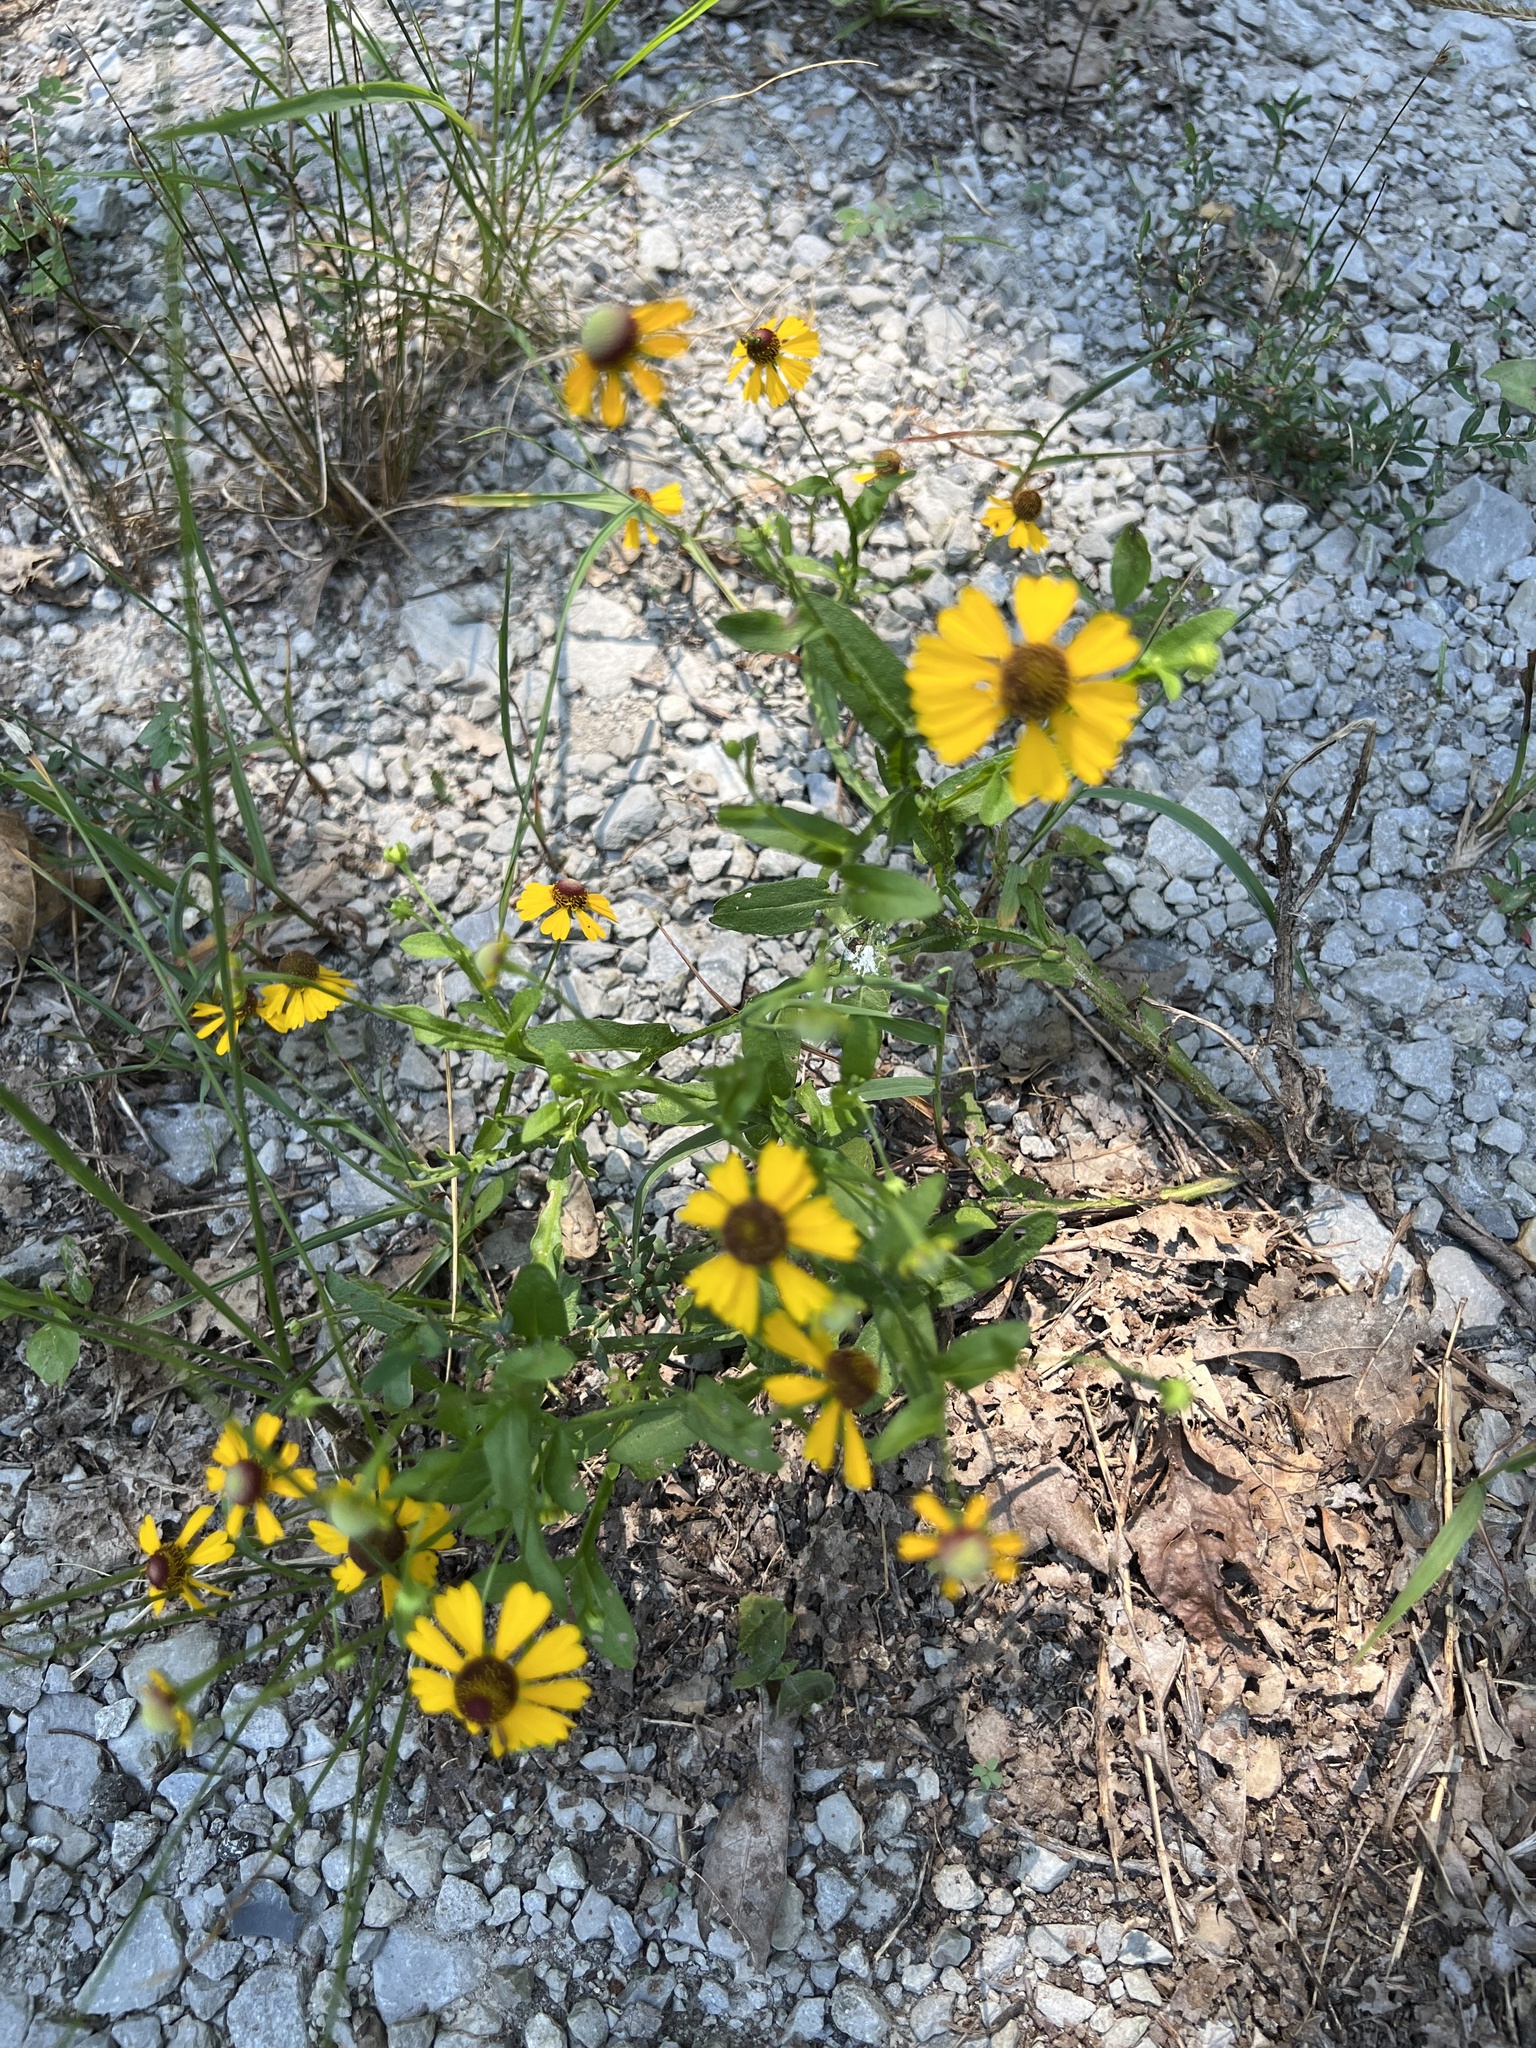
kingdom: Plantae
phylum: Tracheophyta
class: Magnoliopsida
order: Asterales
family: Asteraceae
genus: Helenium
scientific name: Helenium flexuosum
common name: Naked-flowered sneezeweed
